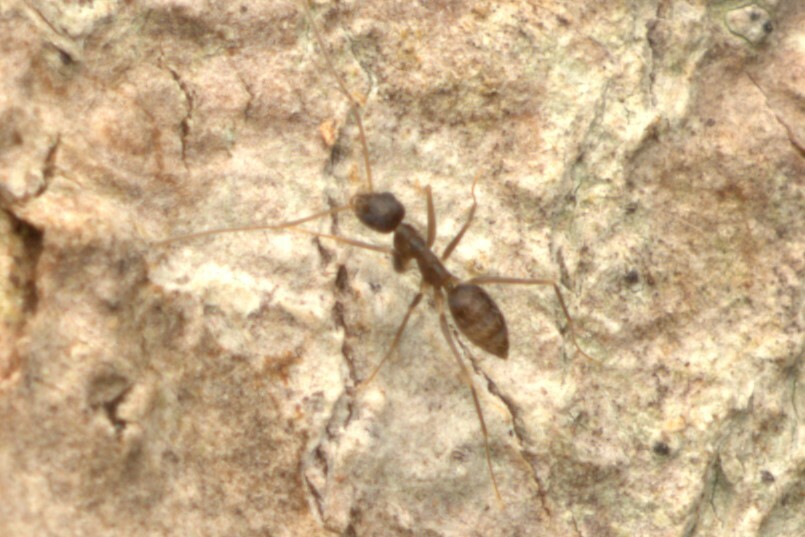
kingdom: Animalia
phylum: Arthropoda
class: Insecta
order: Hymenoptera
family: Formicidae
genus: Paratrechina
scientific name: Paratrechina longicornis
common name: Longhorned crazy ant
